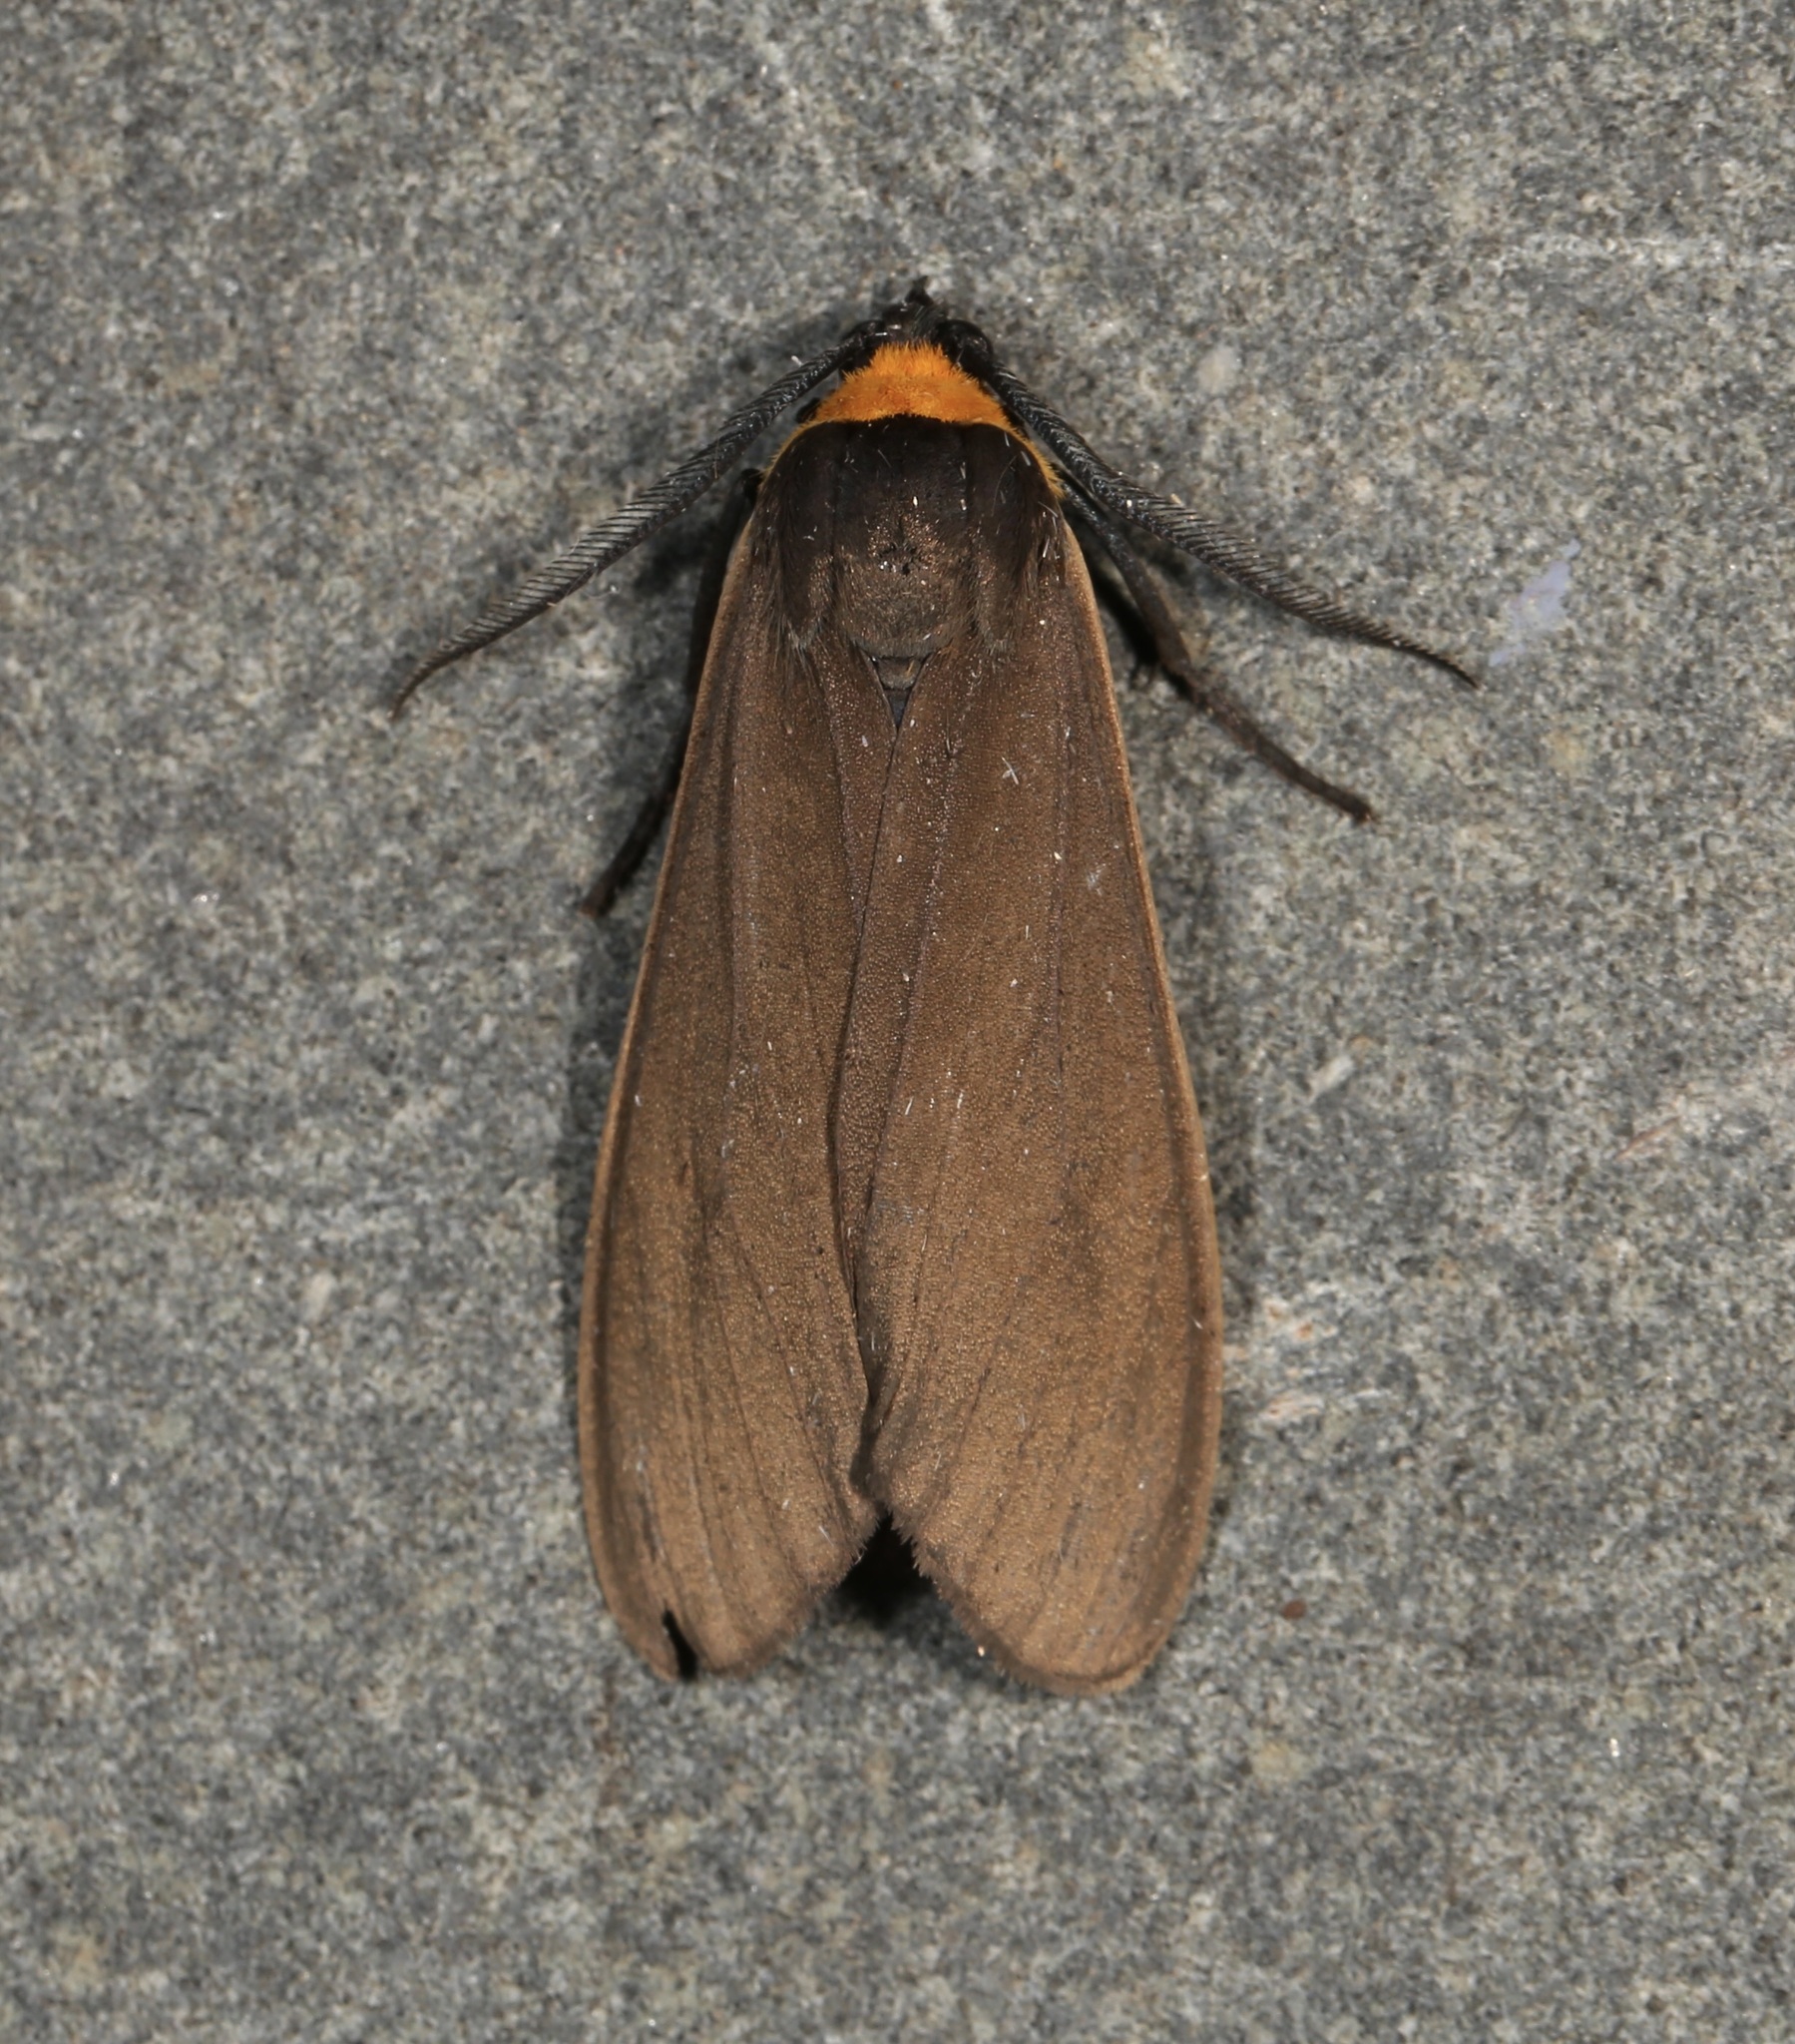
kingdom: Animalia
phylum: Arthropoda
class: Insecta
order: Lepidoptera
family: Erebidae
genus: Cisseps
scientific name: Cisseps fulvicollis
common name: Yellow-collared scape moth
